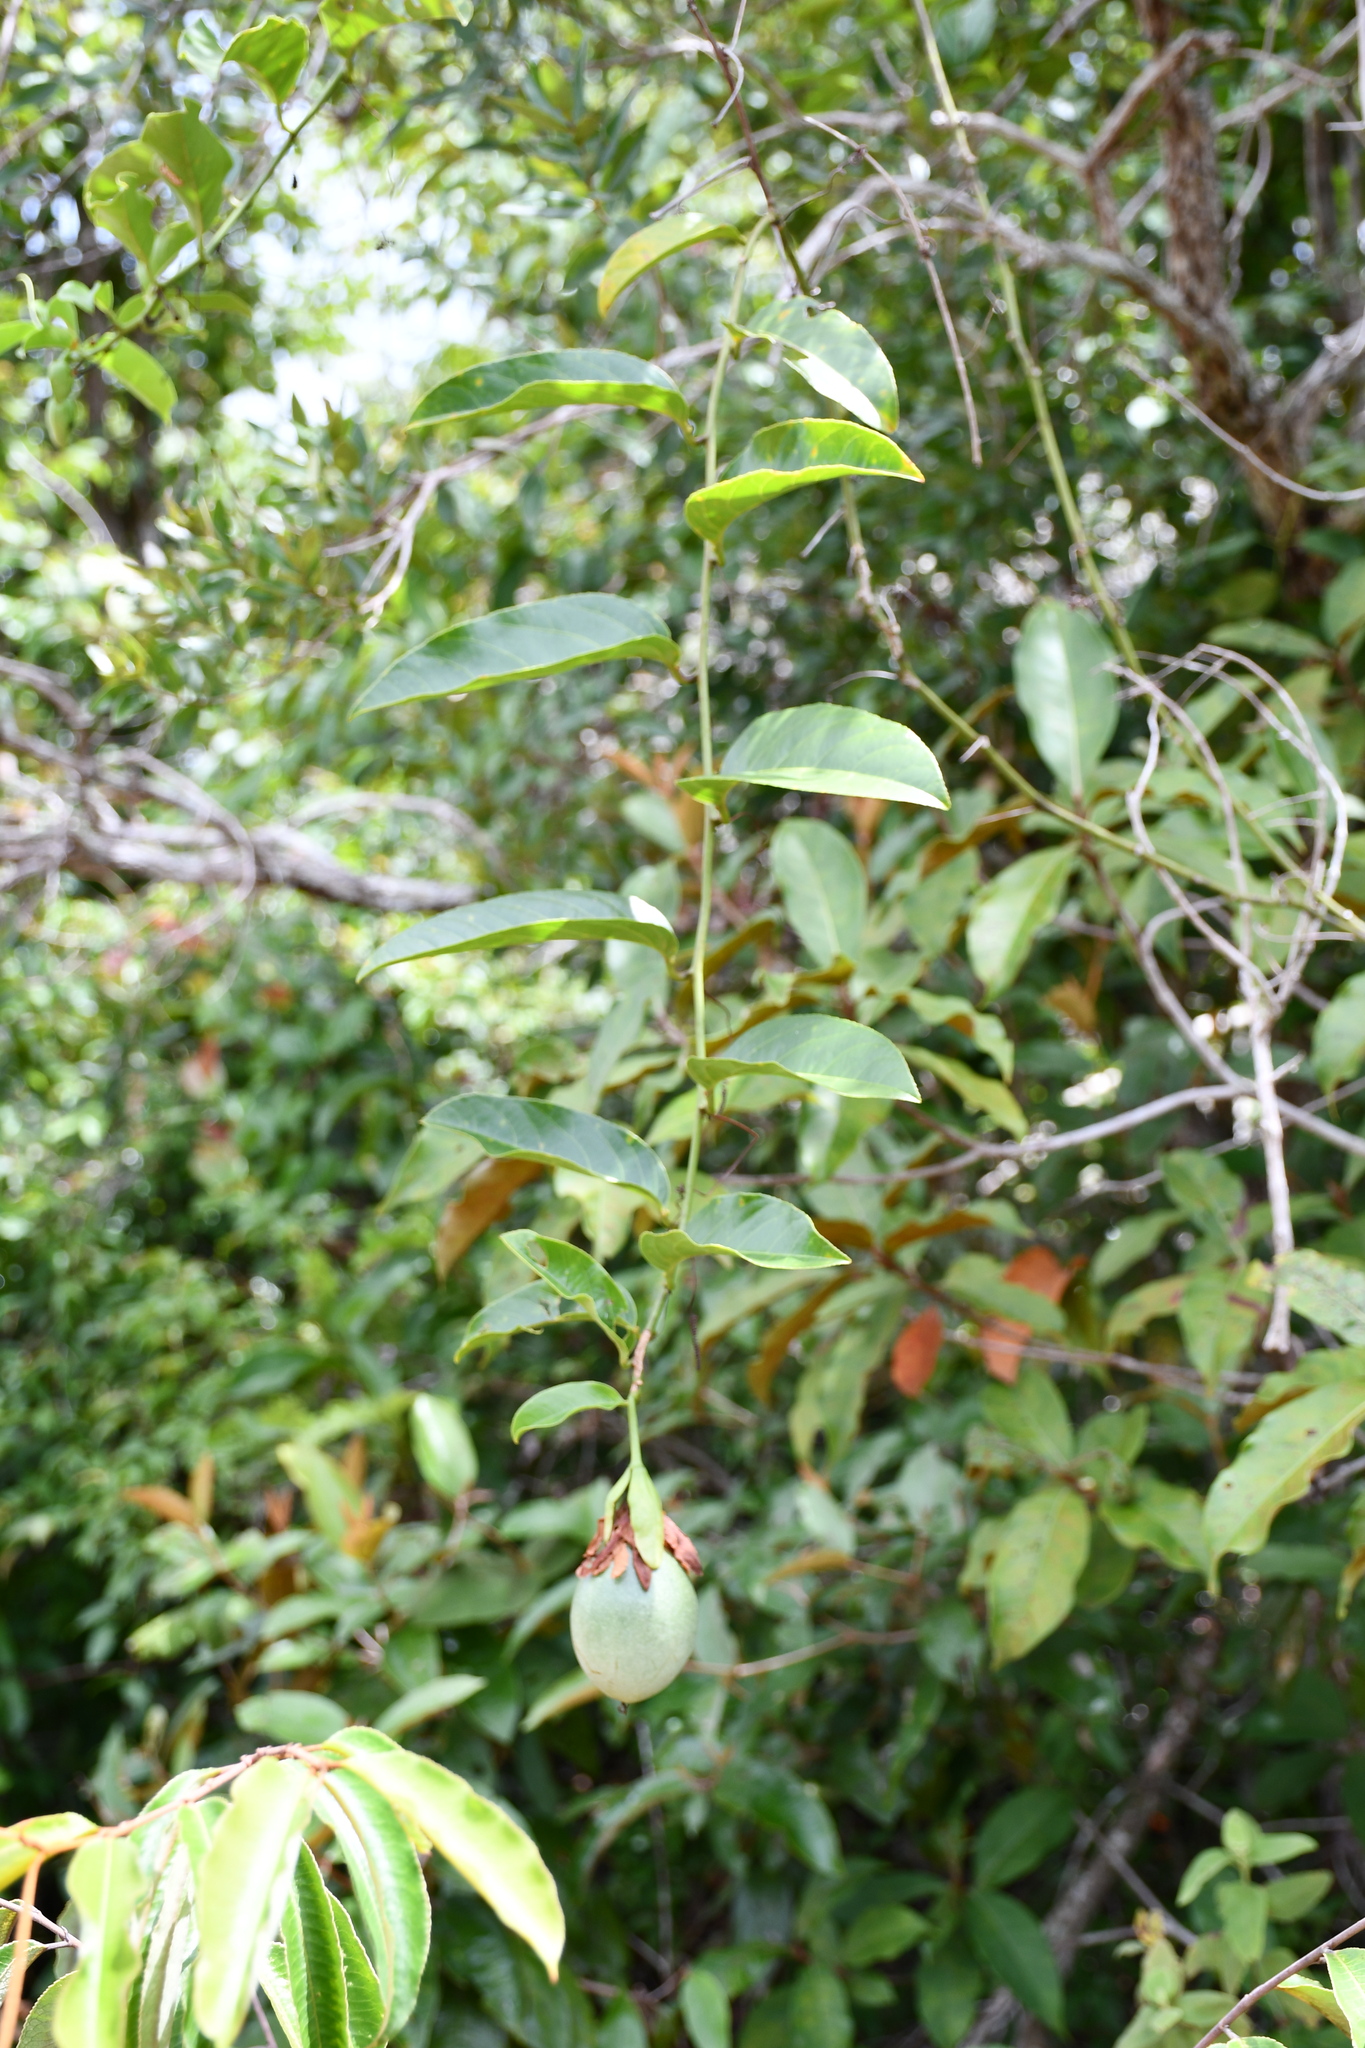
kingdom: Plantae
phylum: Tracheophyta
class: Magnoliopsida
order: Malpighiales
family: Passifloraceae
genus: Passiflora
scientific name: Passiflora nitida
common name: Bell-apple
